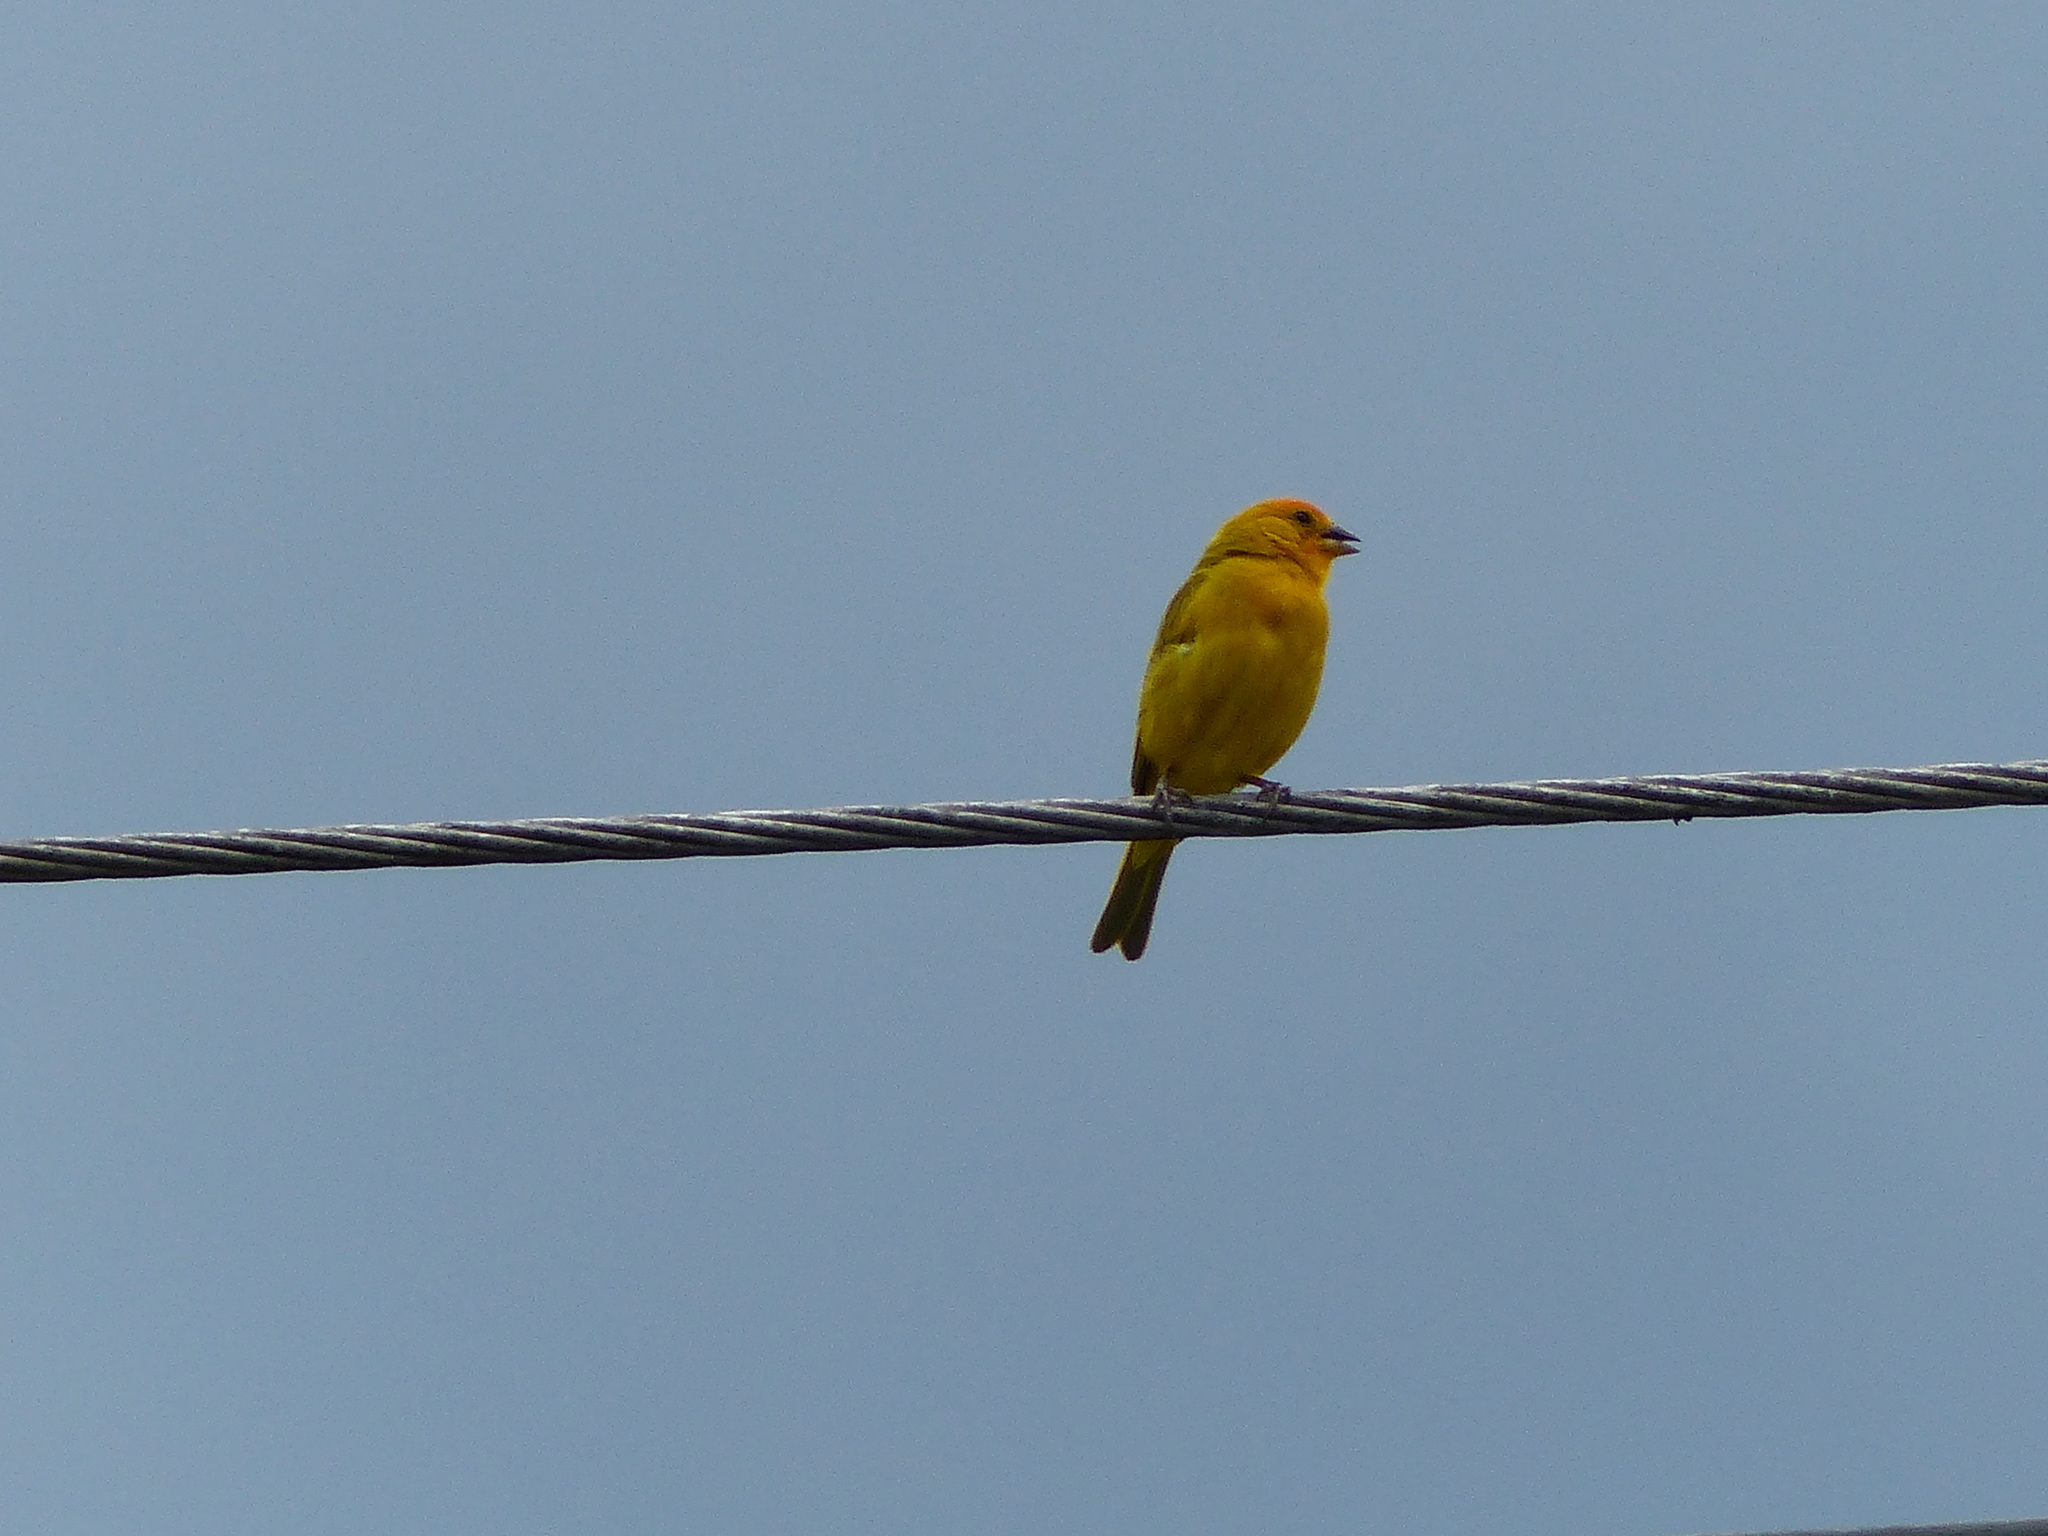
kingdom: Animalia
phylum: Chordata
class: Aves
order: Passeriformes
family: Thraupidae
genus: Sicalis
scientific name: Sicalis flaveola
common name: Saffron finch
